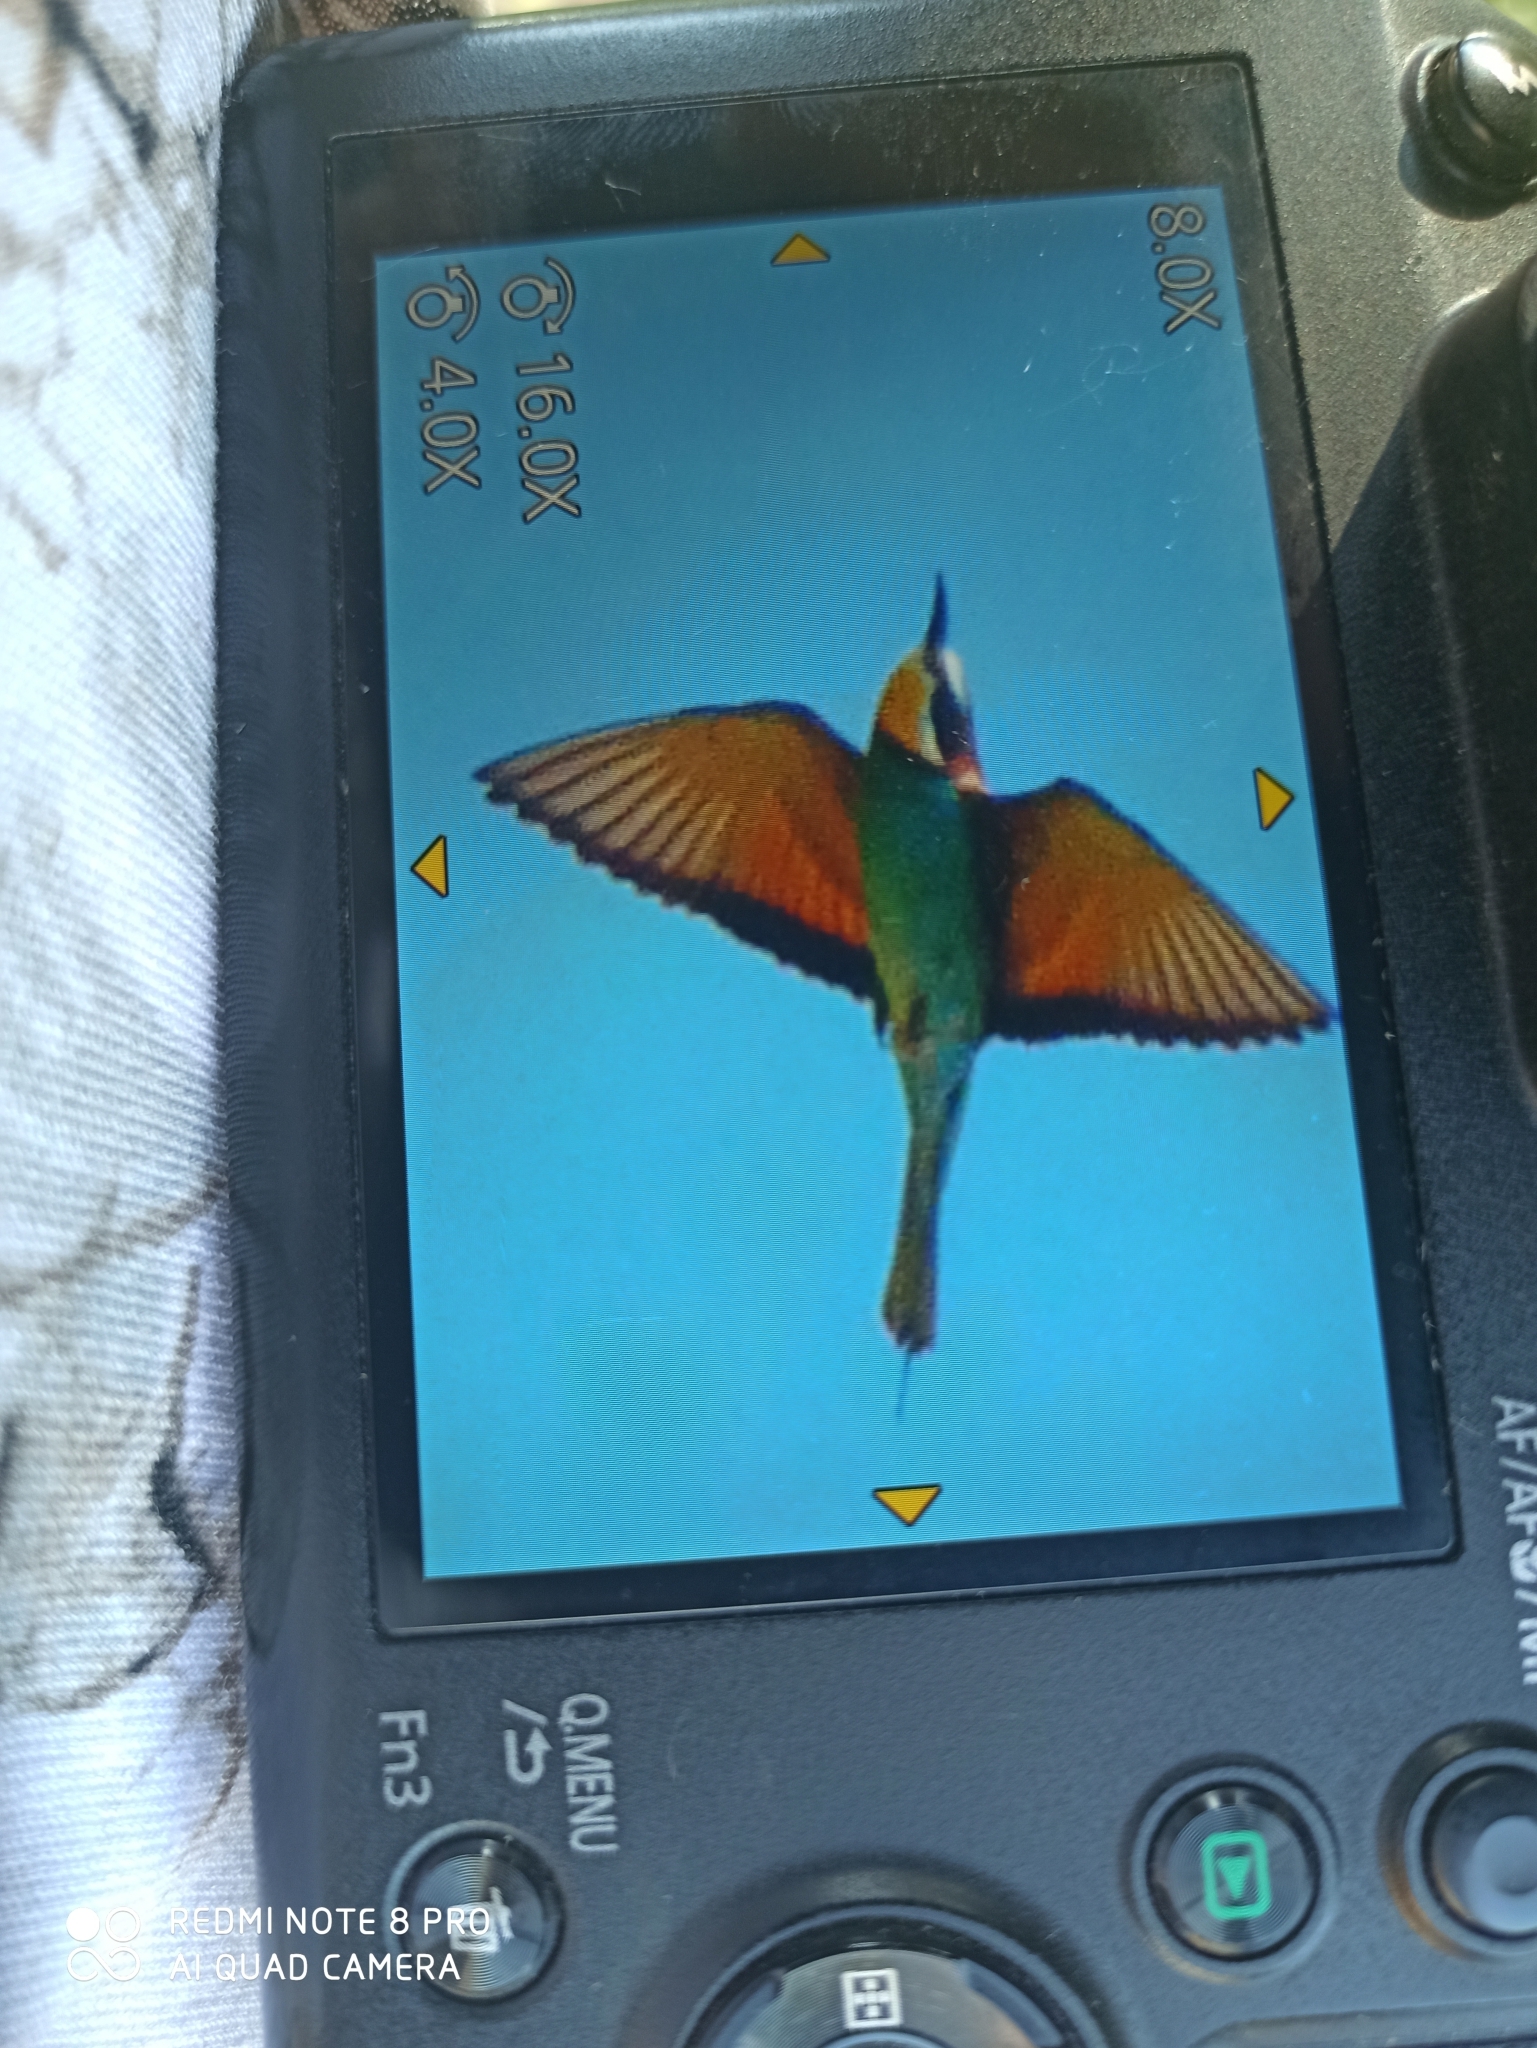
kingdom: Animalia
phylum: Chordata
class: Aves
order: Coraciiformes
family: Meropidae
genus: Merops
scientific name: Merops apiaster
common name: European bee-eater
